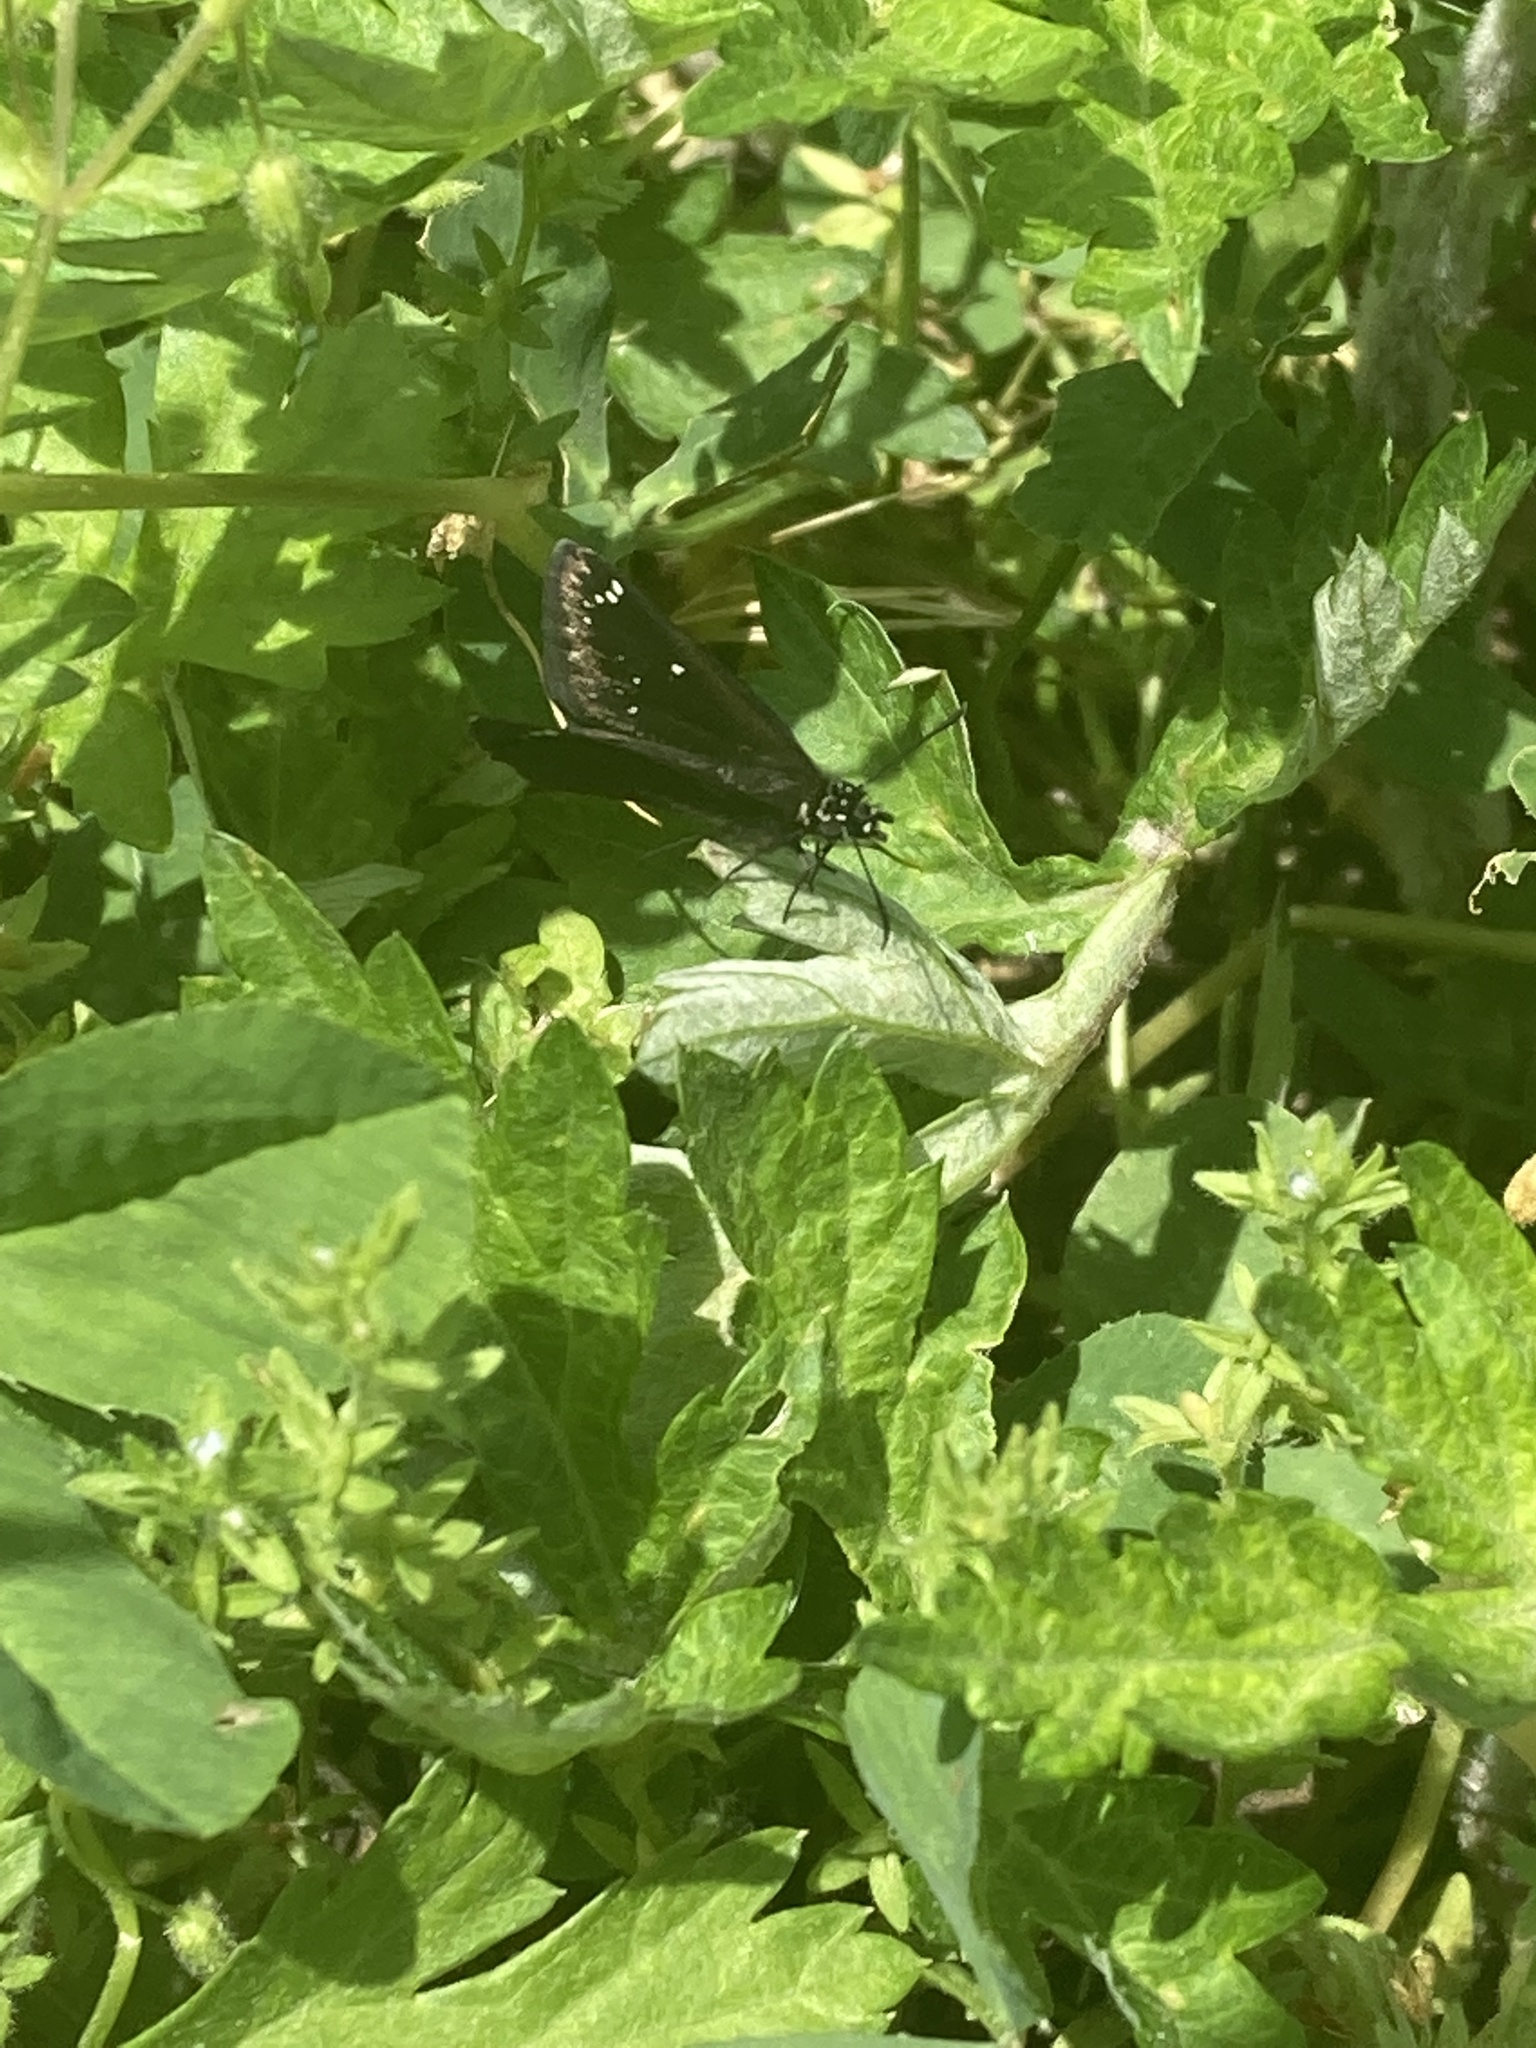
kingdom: Animalia
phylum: Arthropoda
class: Insecta
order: Lepidoptera
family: Hesperiidae
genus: Pholisora
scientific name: Pholisora catullus
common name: Common sootywing
